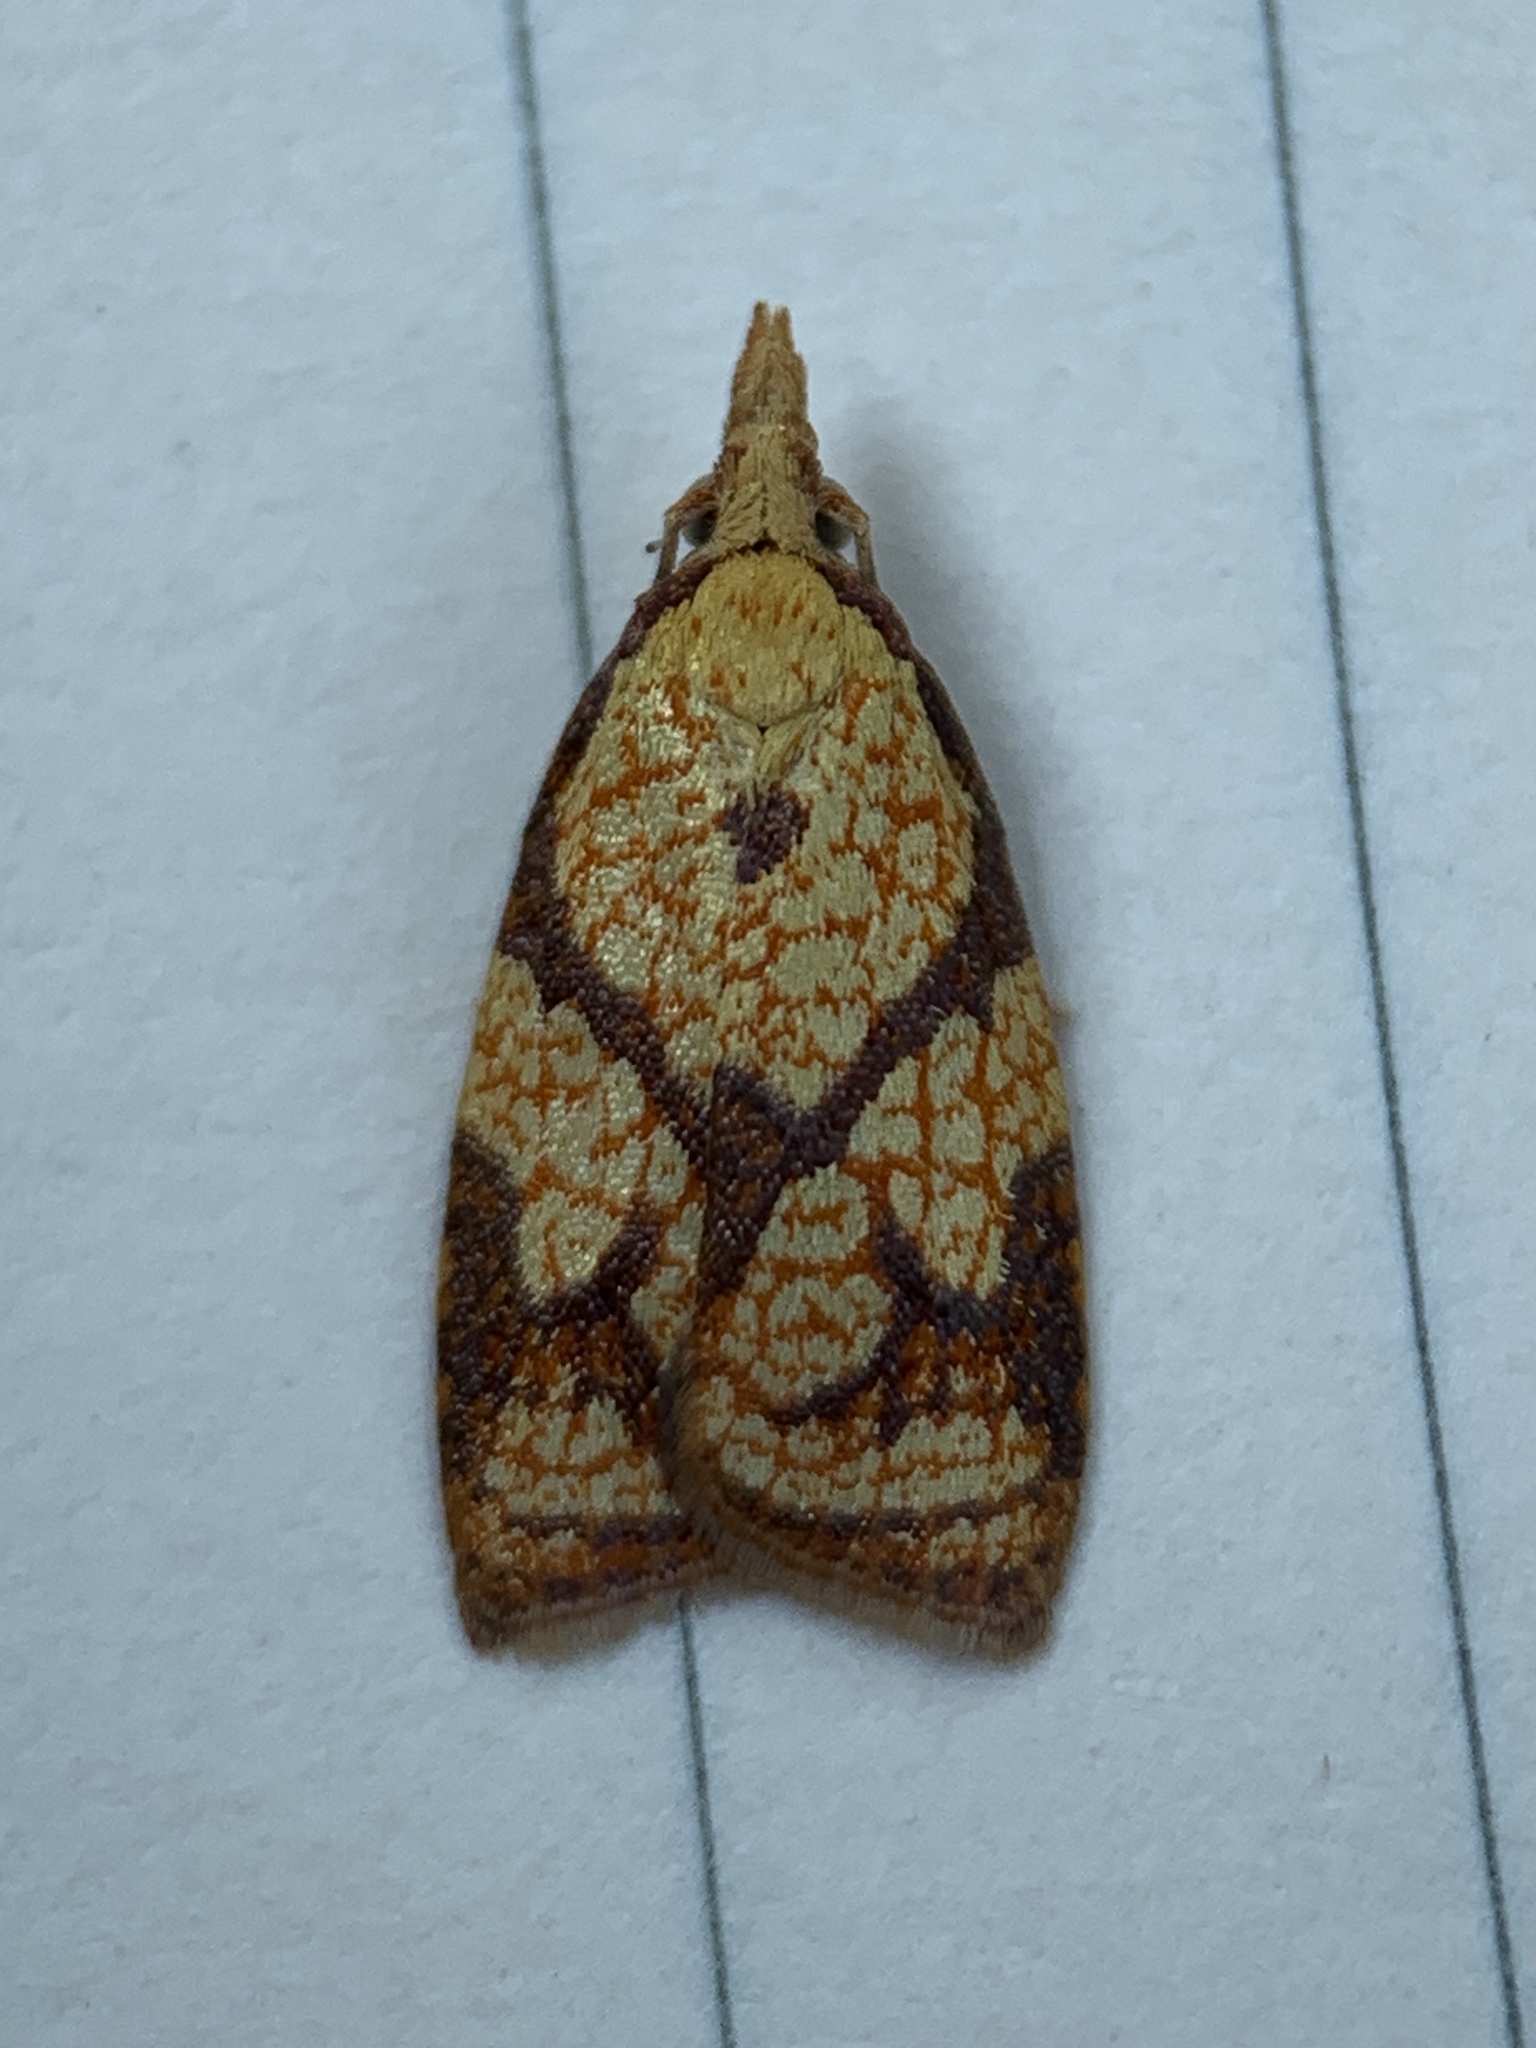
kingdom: Animalia
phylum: Arthropoda
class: Insecta
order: Lepidoptera
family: Tortricidae
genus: Cenopis
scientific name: Cenopis reticulatana
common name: Reticulated fruitworm moth
